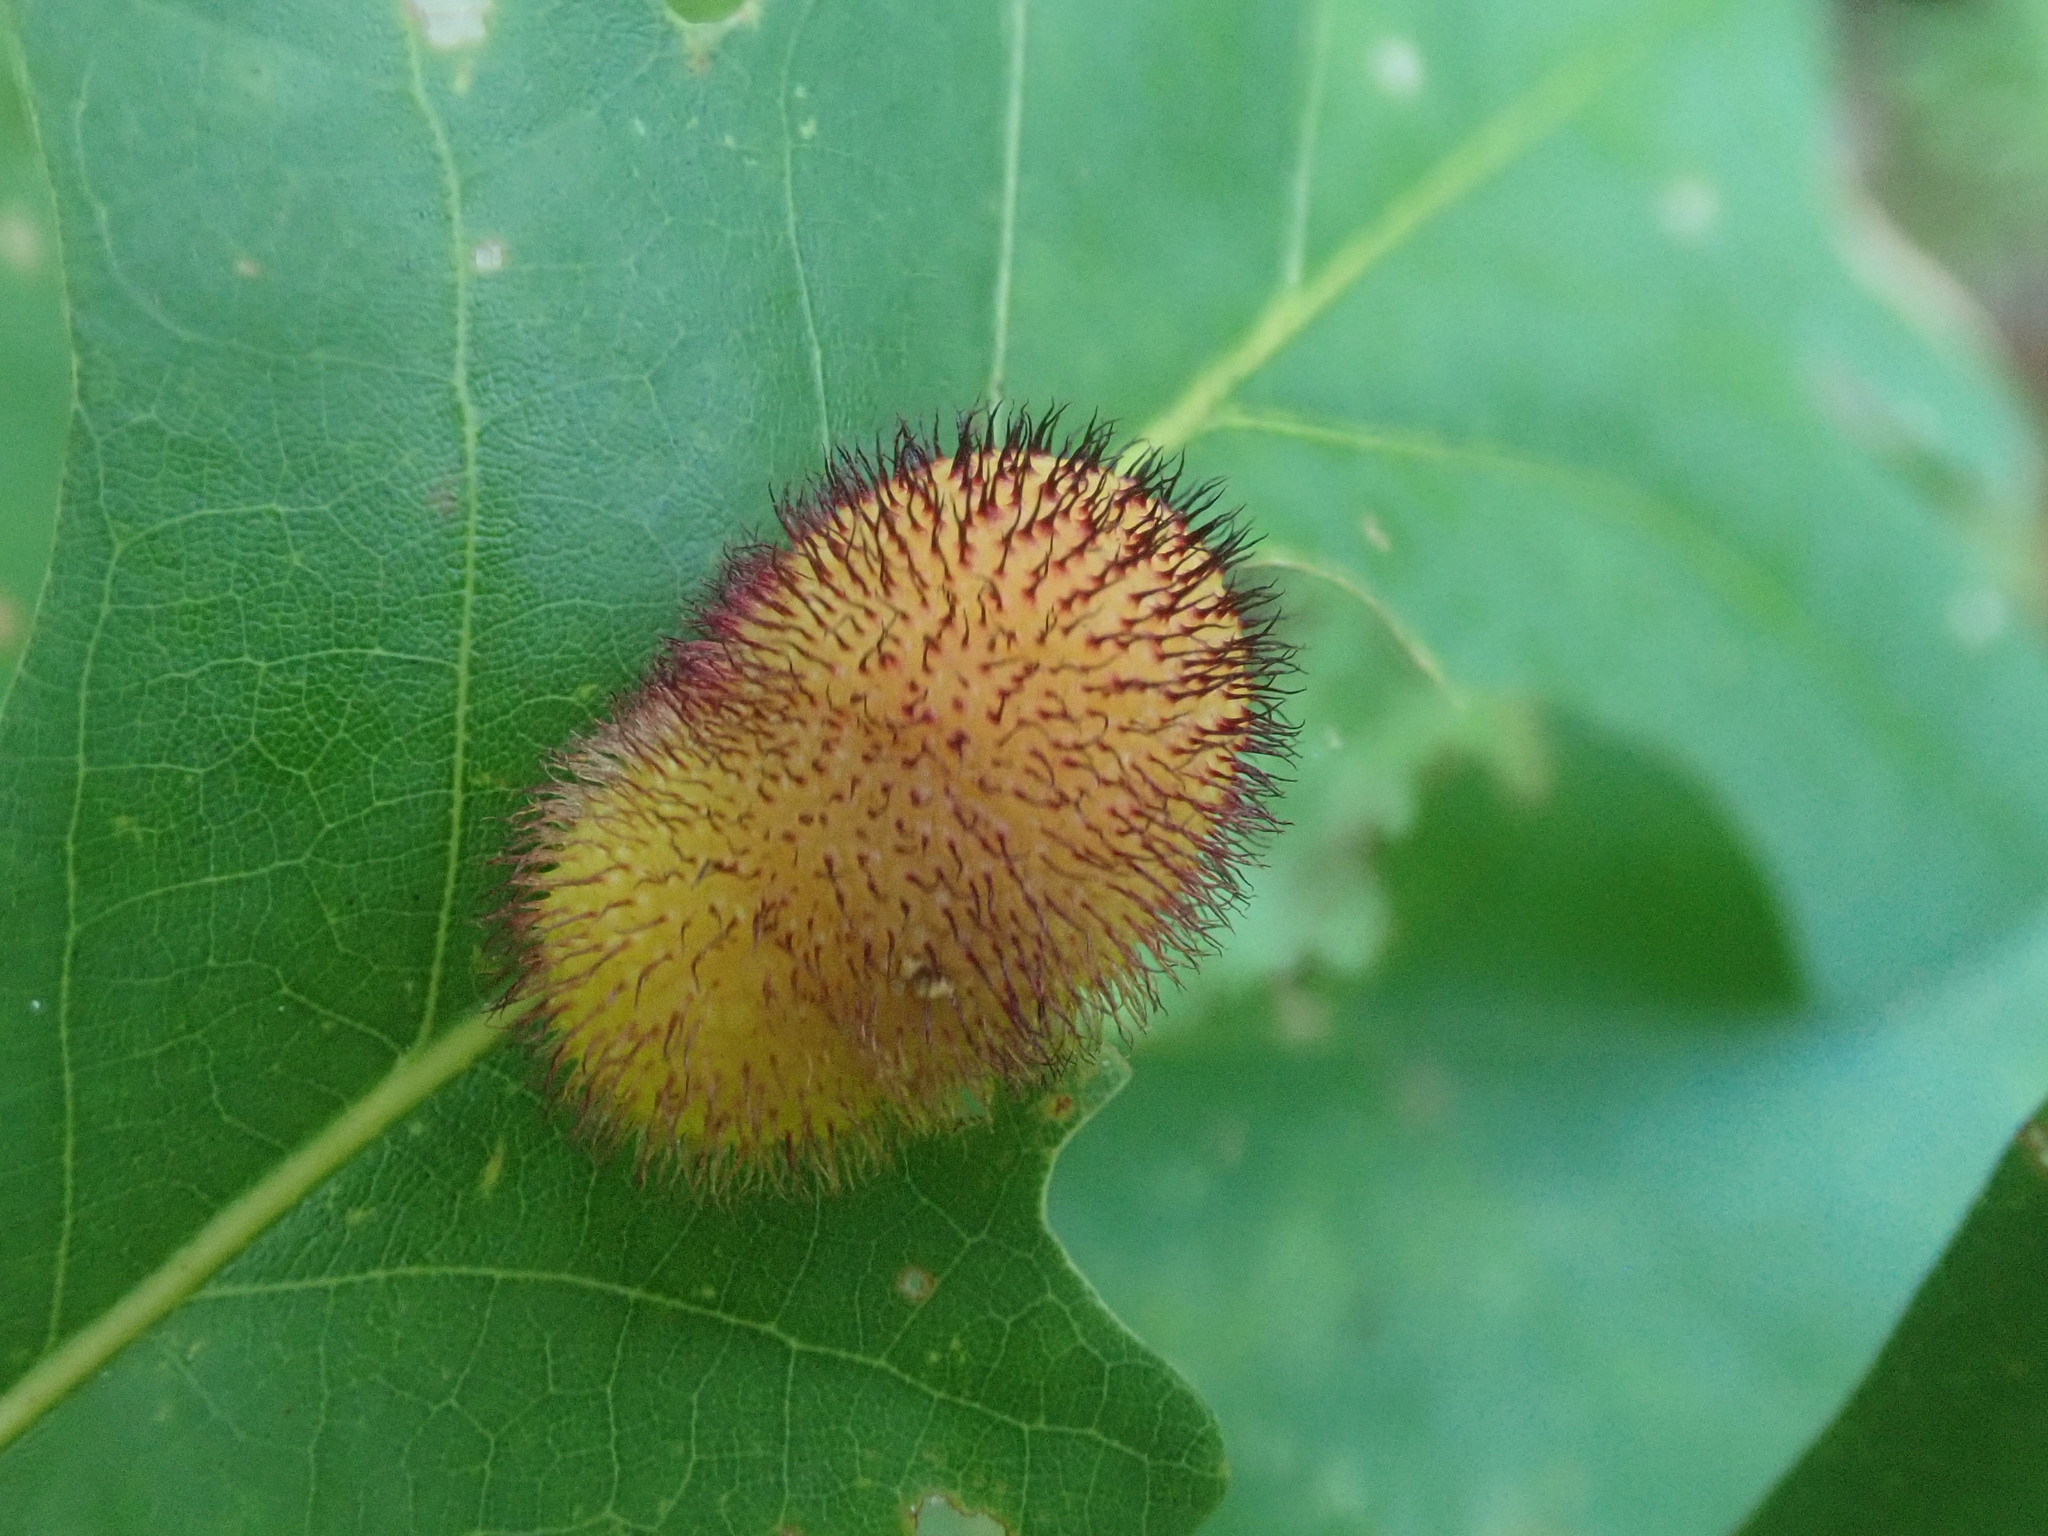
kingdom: Animalia
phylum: Arthropoda
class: Insecta
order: Hymenoptera
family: Cynipidae
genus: Acraspis
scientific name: Acraspis erinacei
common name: Hedgehog gall wasp
